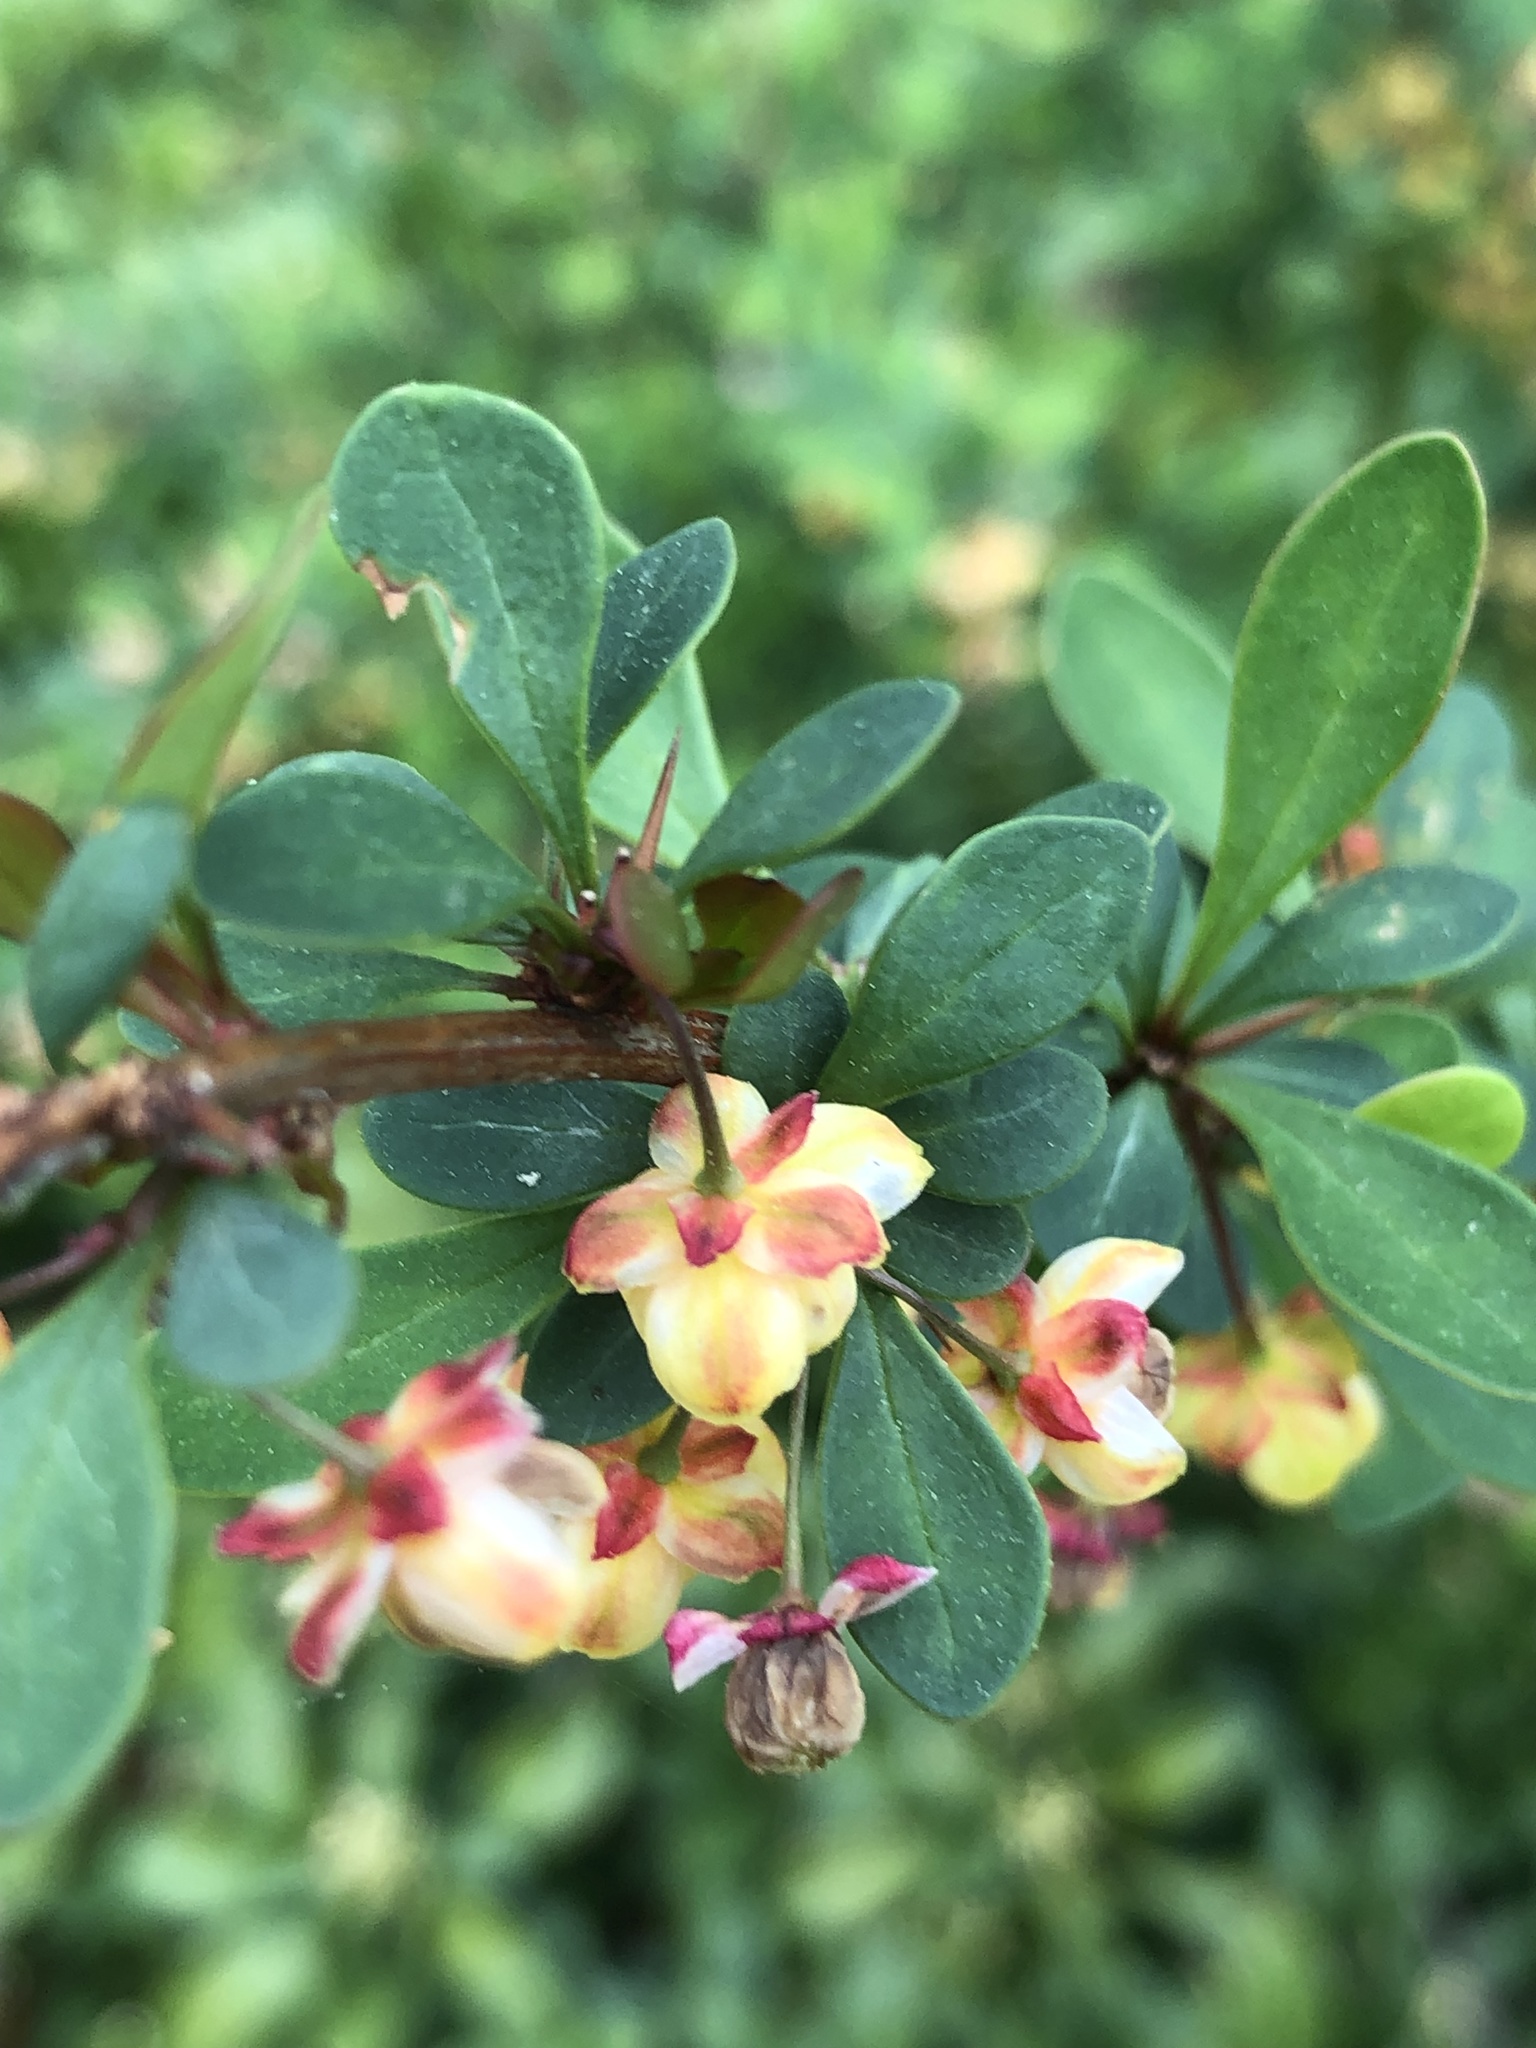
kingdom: Plantae
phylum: Tracheophyta
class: Magnoliopsida
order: Ranunculales
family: Berberidaceae
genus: Berberis
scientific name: Berberis thunbergii
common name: Japanese barberry
